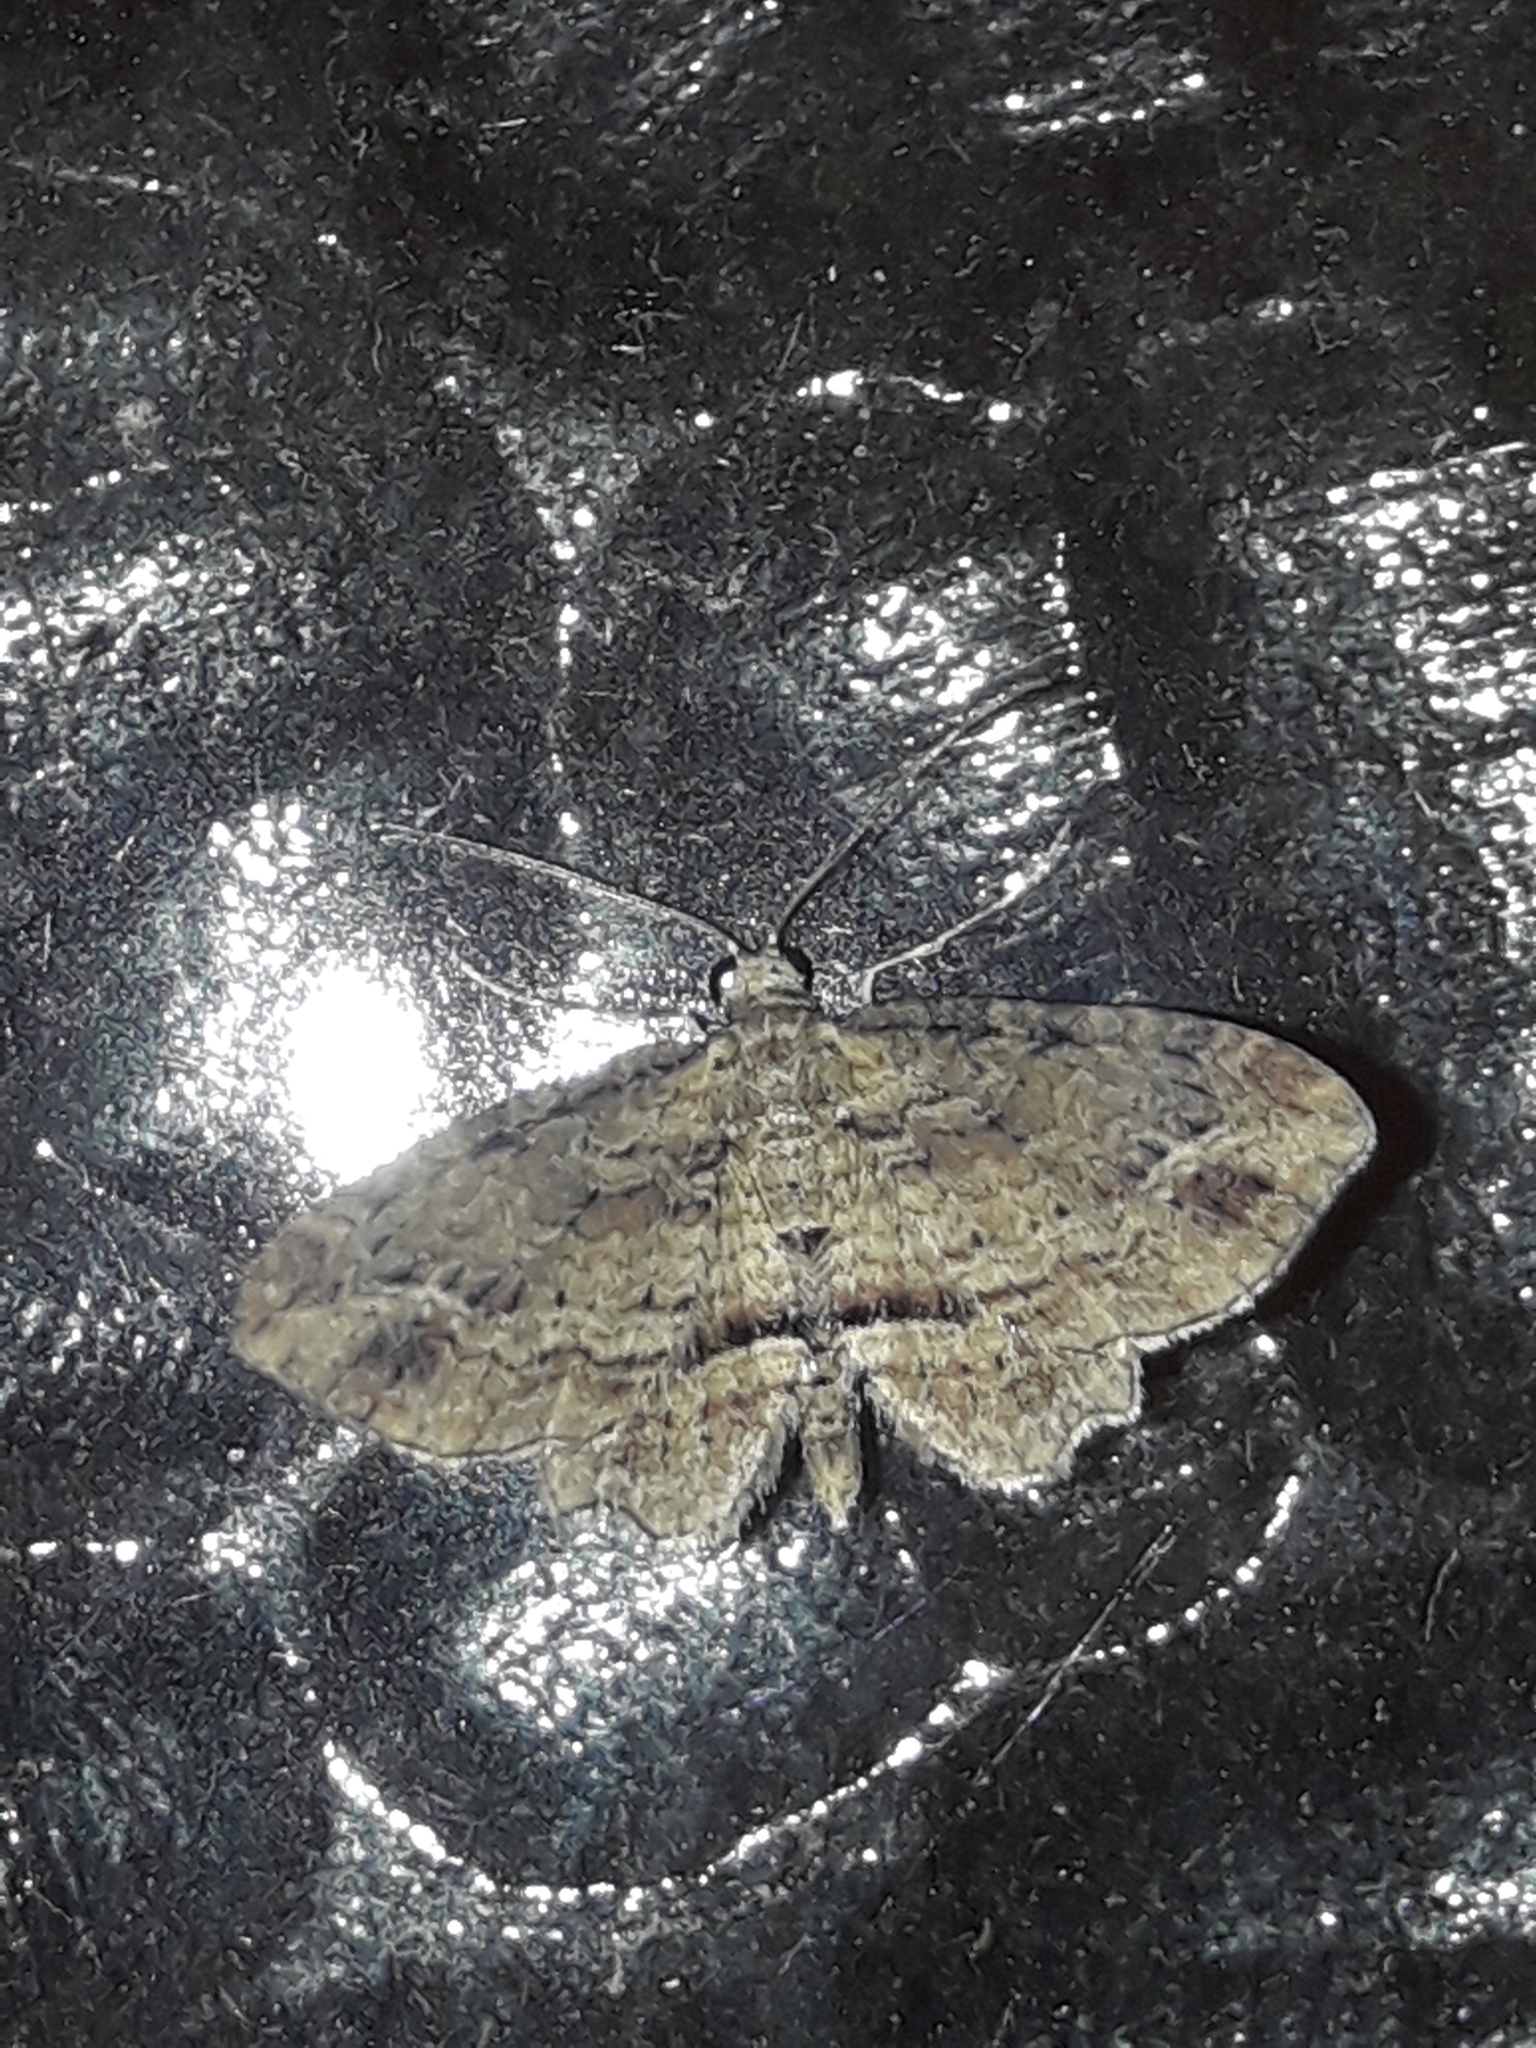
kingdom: Animalia
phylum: Arthropoda
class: Insecta
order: Lepidoptera
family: Geometridae
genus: Chloroclystis
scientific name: Chloroclystis filata
